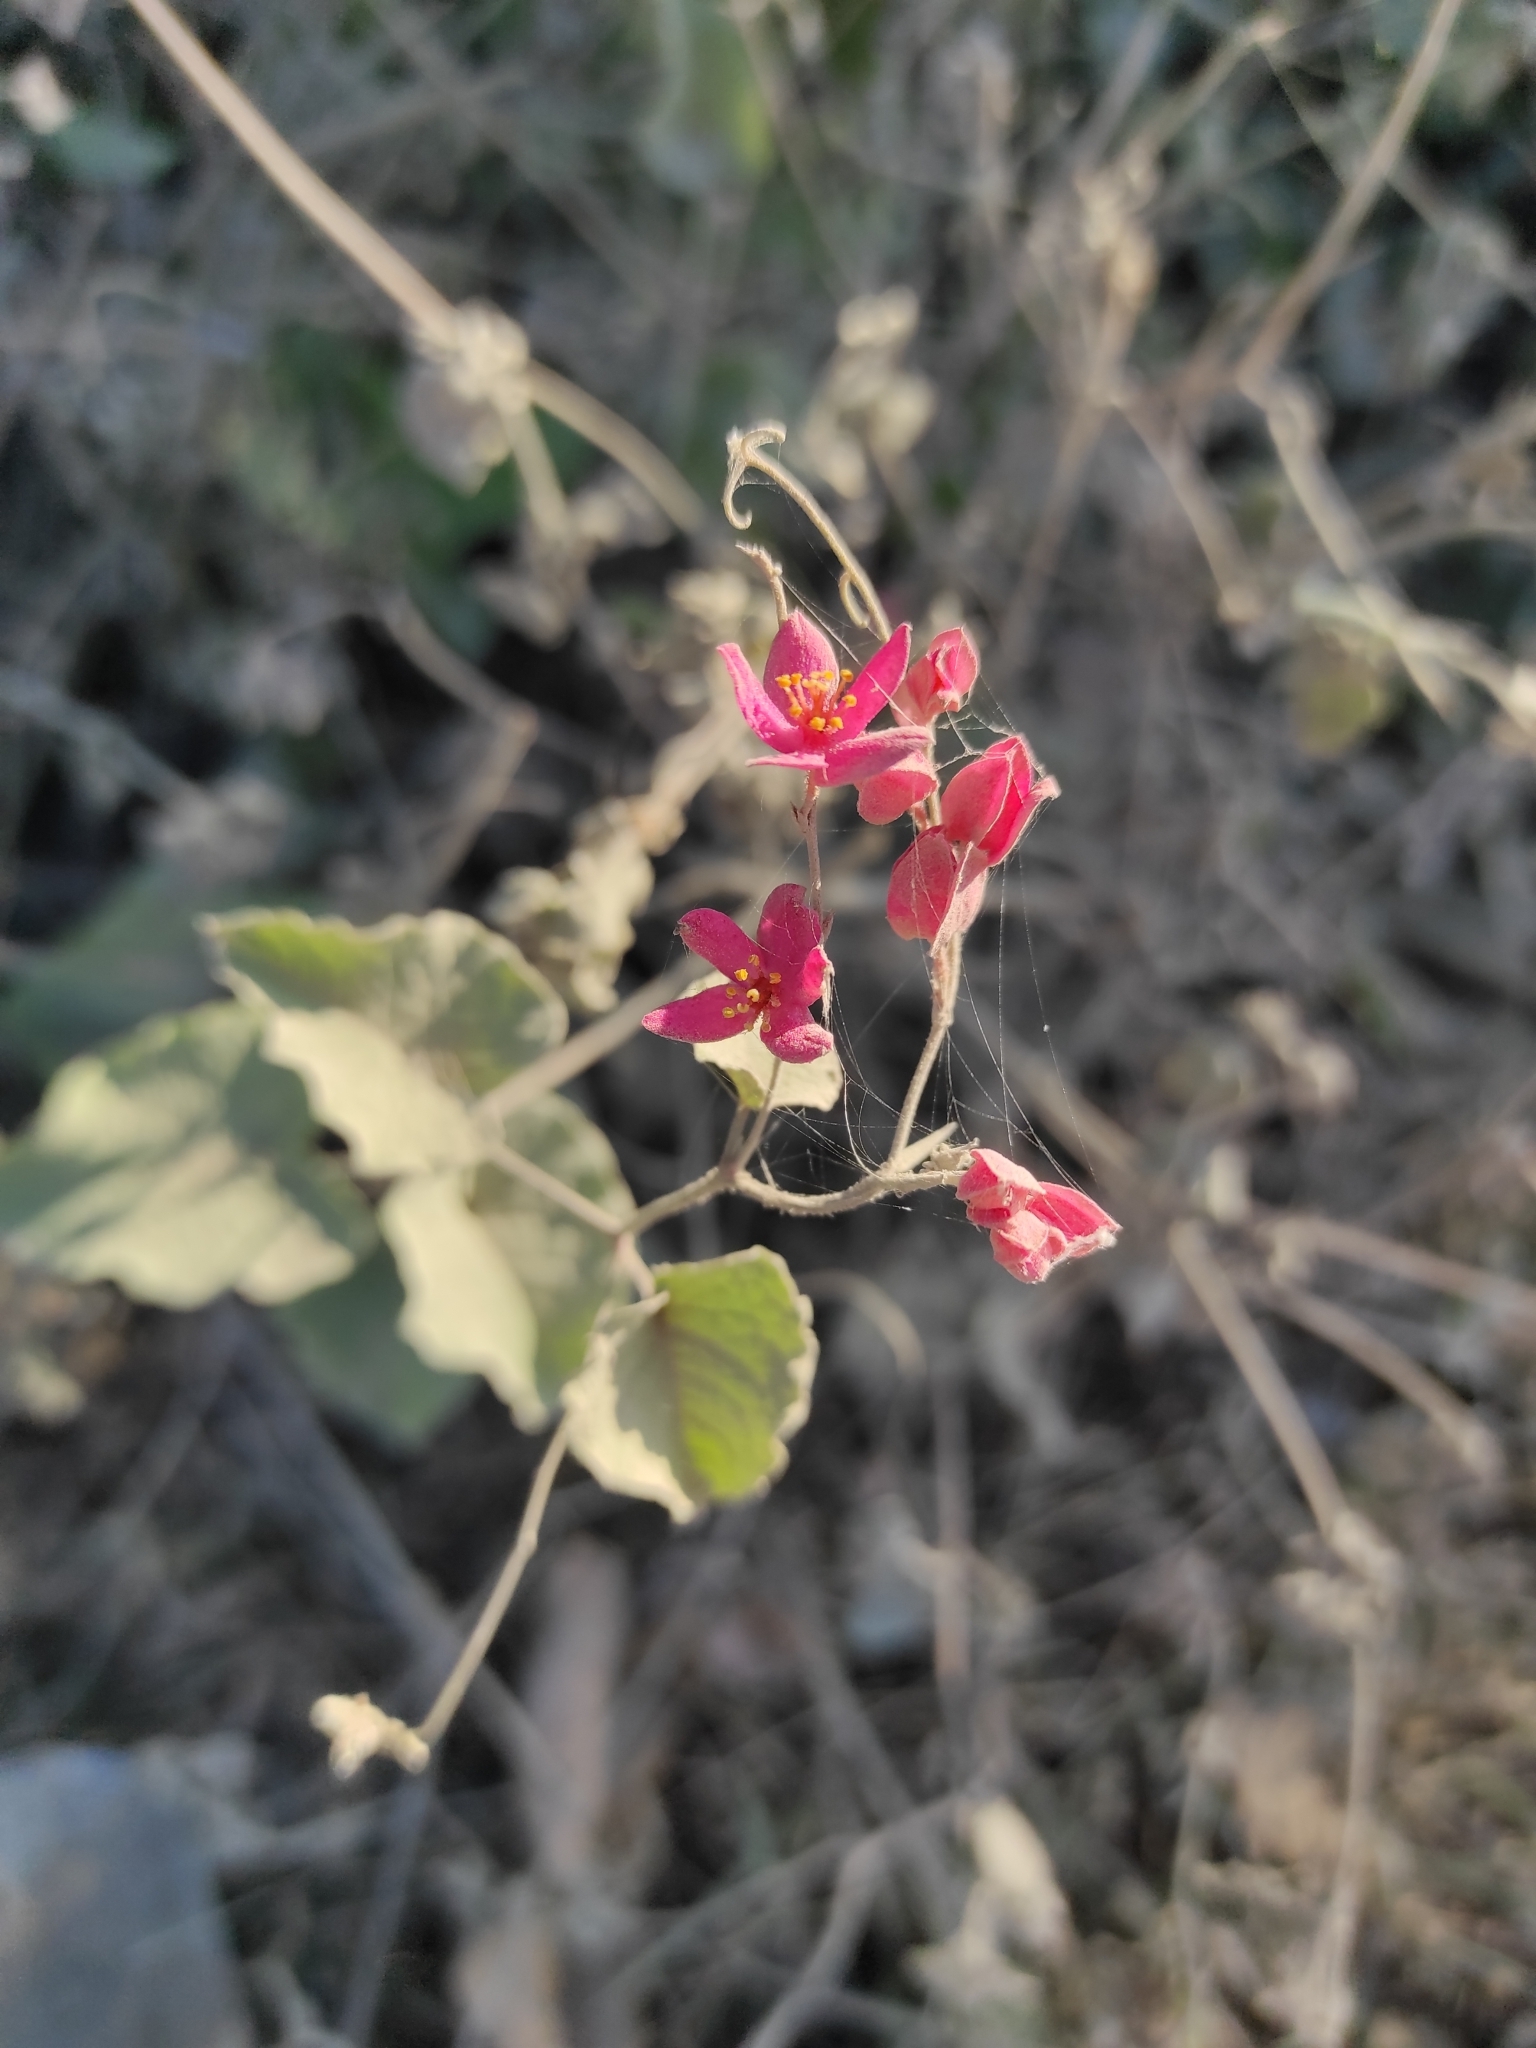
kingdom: Plantae
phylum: Tracheophyta
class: Magnoliopsida
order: Caryophyllales
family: Polygonaceae
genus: Antigonon
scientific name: Antigonon leptopus
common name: Coral vine
